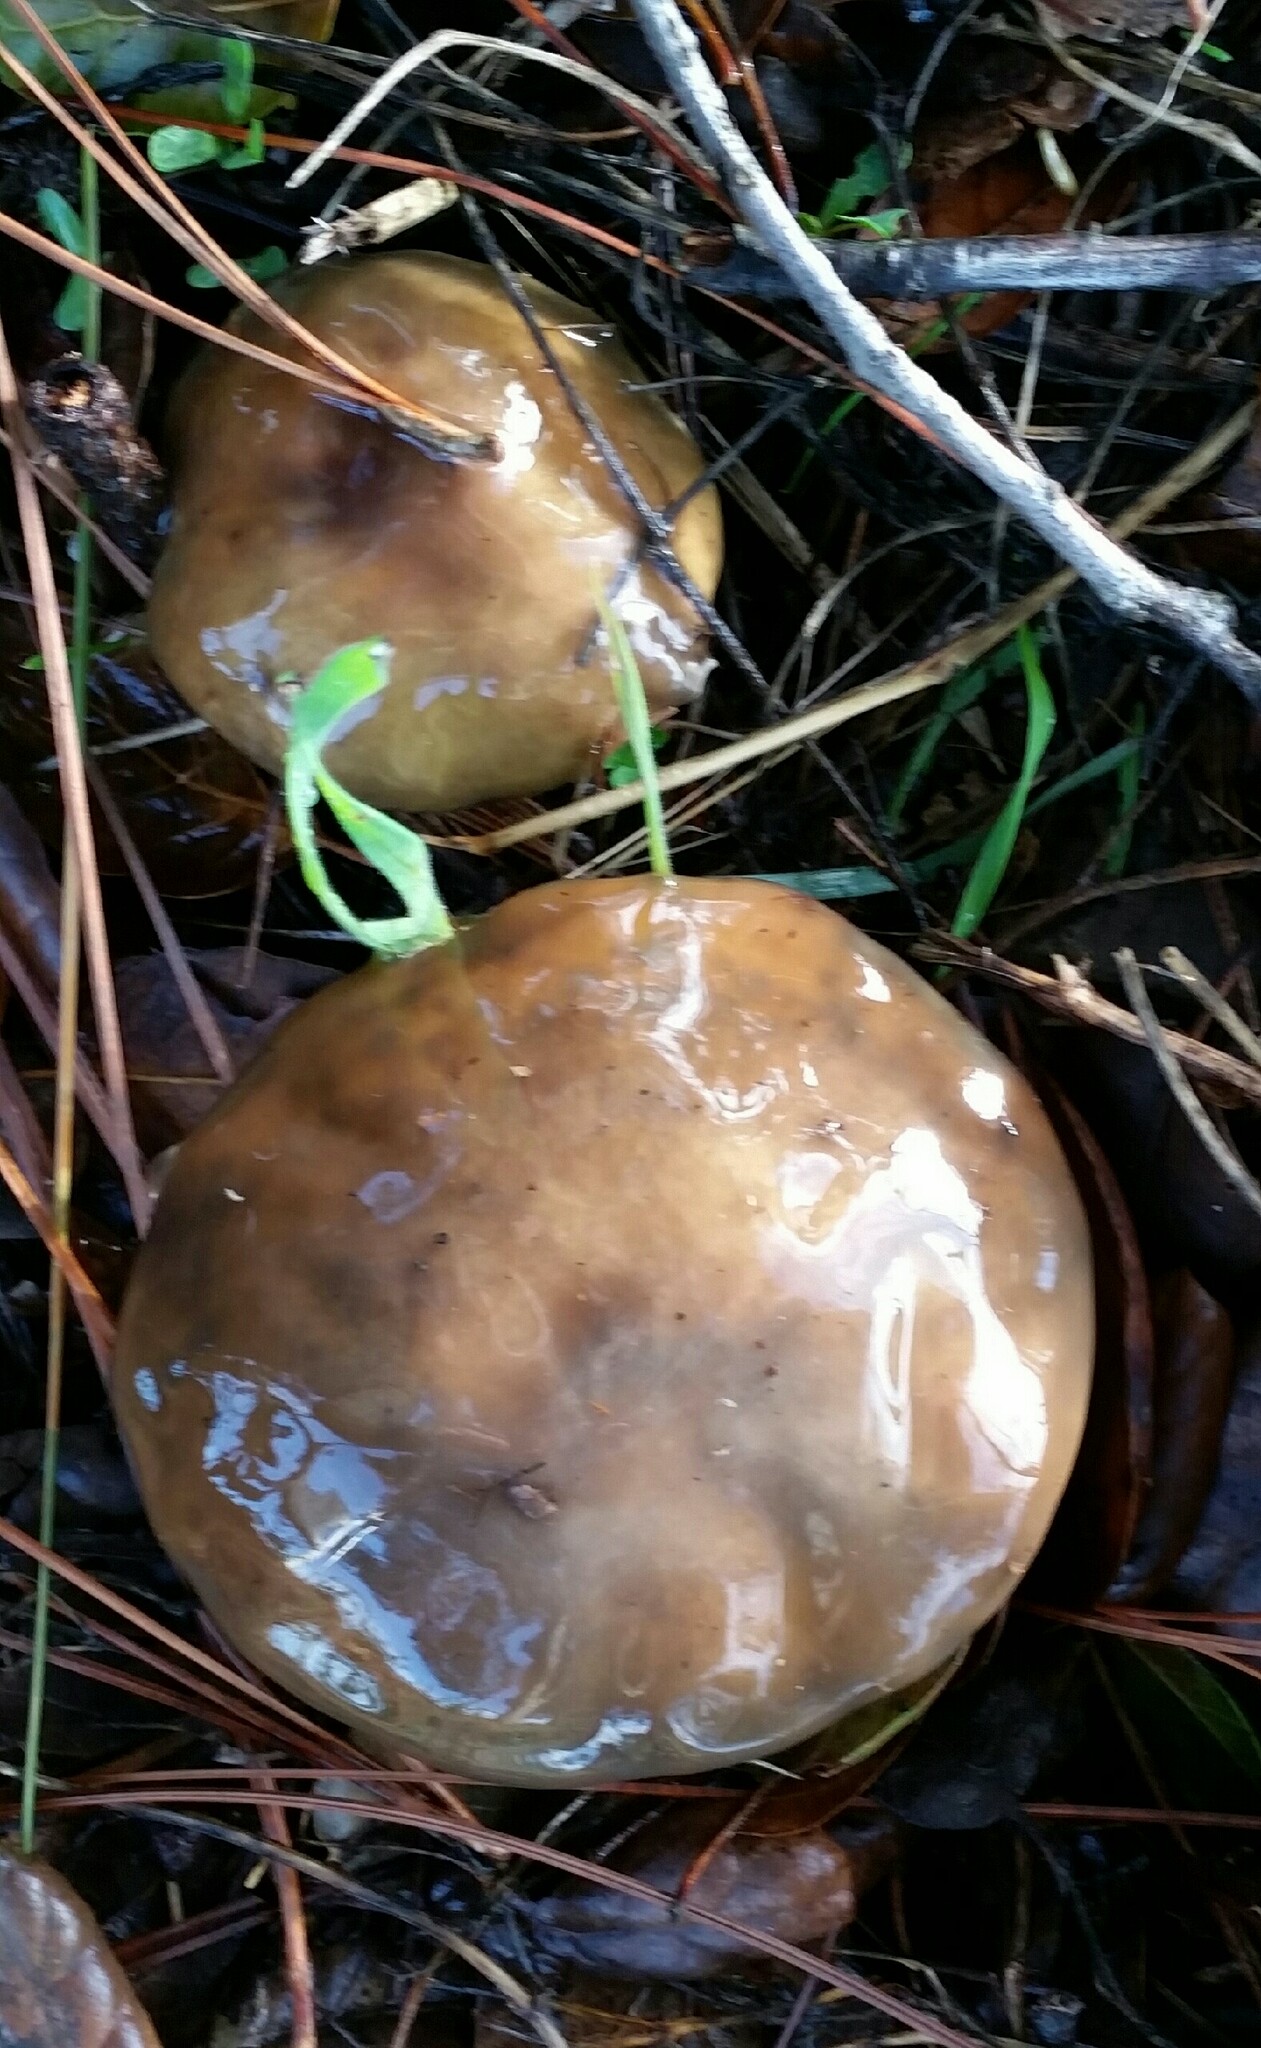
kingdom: Fungi
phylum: Basidiomycota
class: Agaricomycetes
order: Boletales
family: Suillaceae
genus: Suillus
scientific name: Suillus pungens
